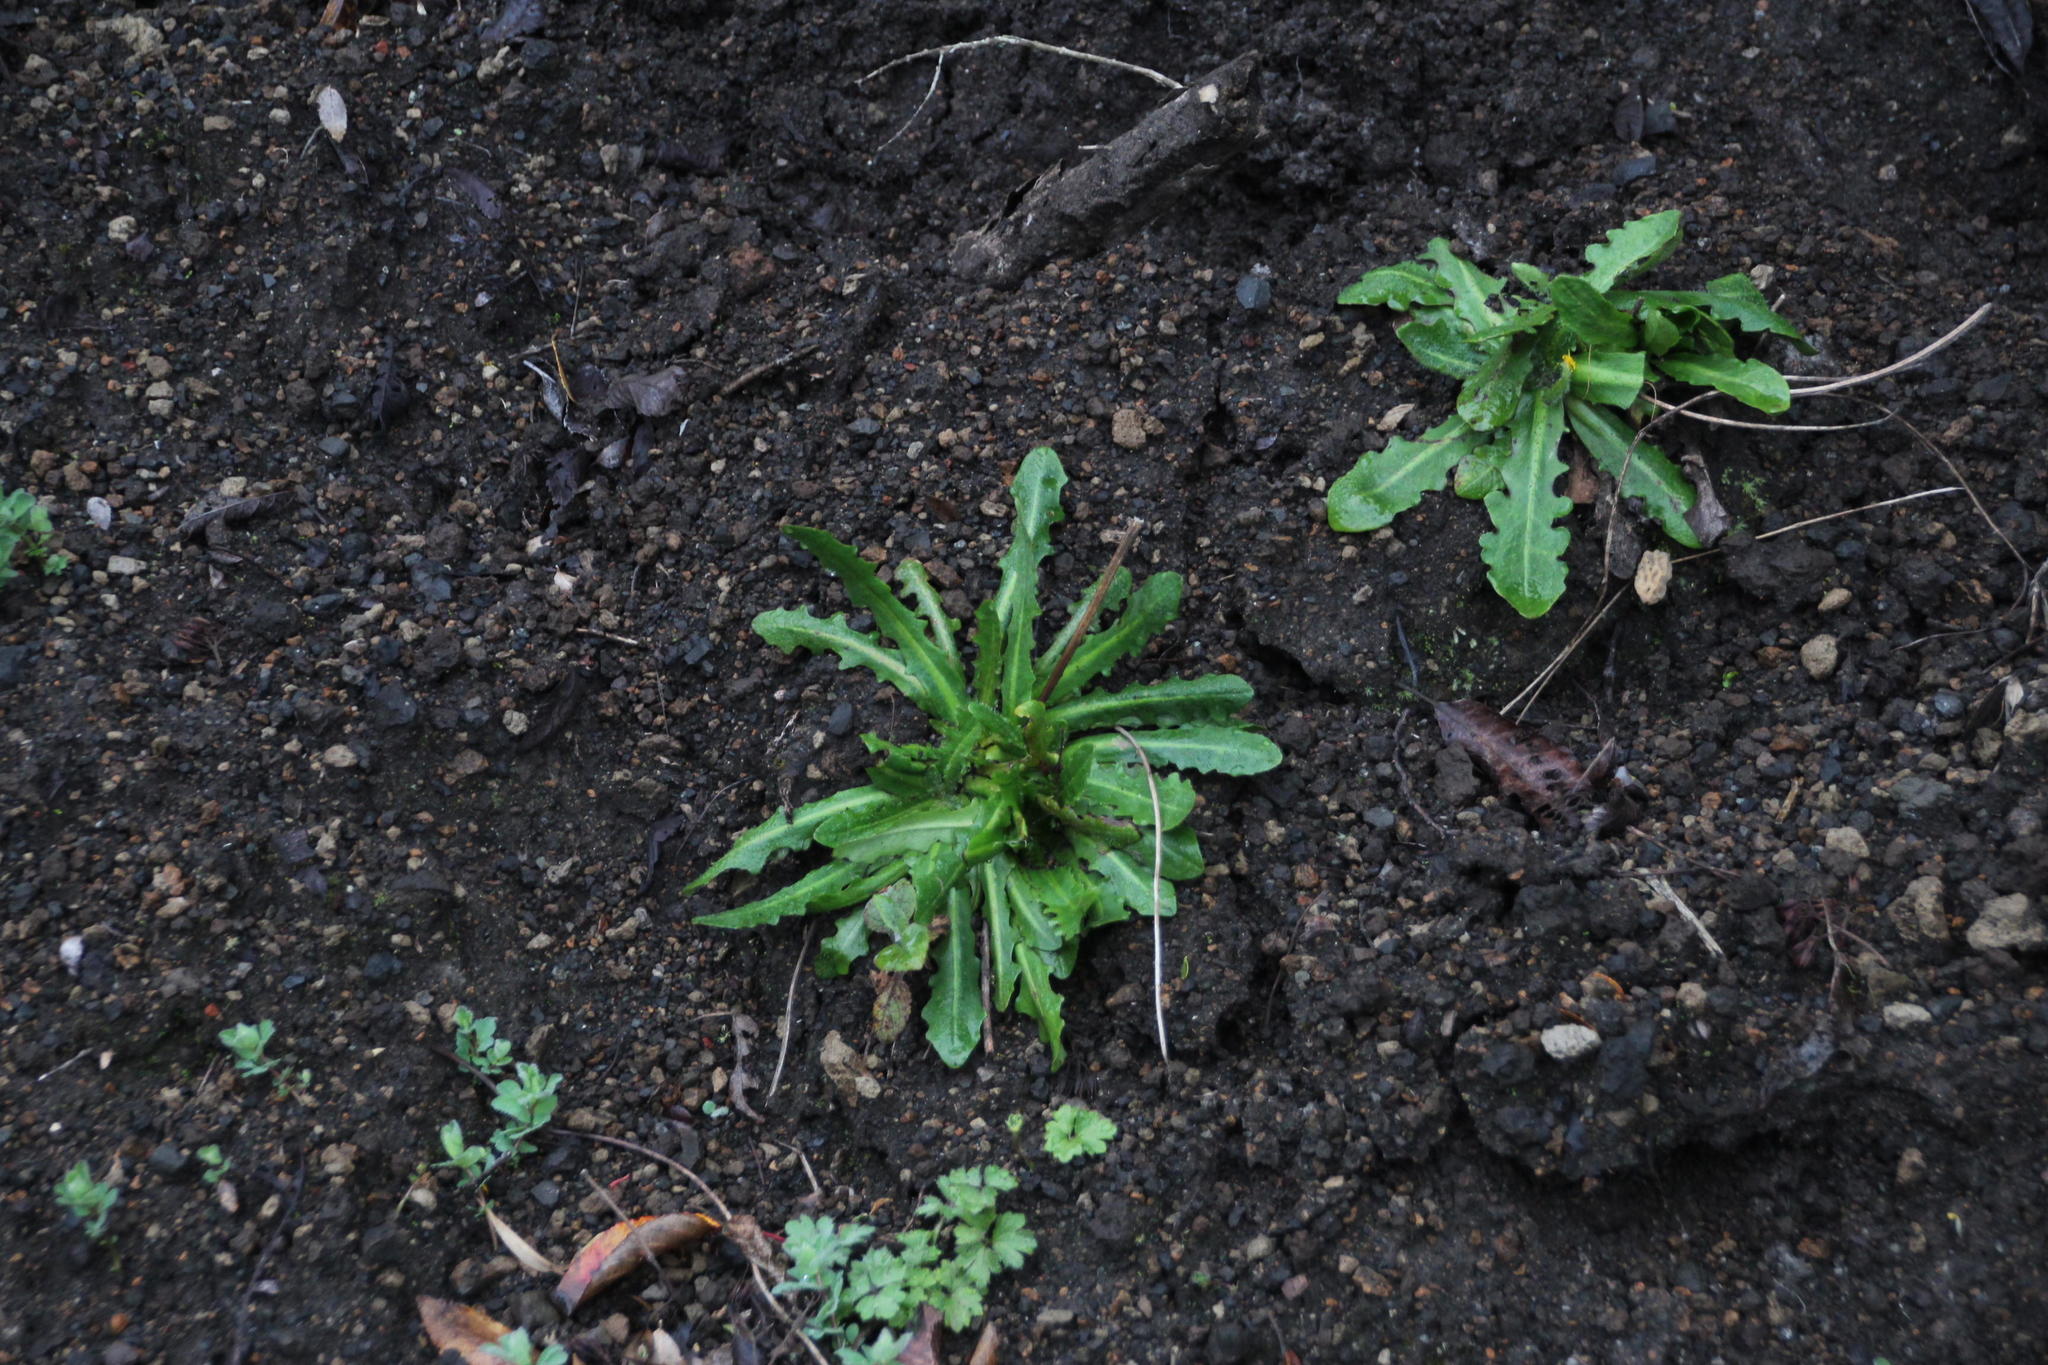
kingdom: Plantae
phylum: Tracheophyta
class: Magnoliopsida
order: Asterales
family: Asteraceae
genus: Hypochaeris
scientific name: Hypochaeris radicata
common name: Flatweed
